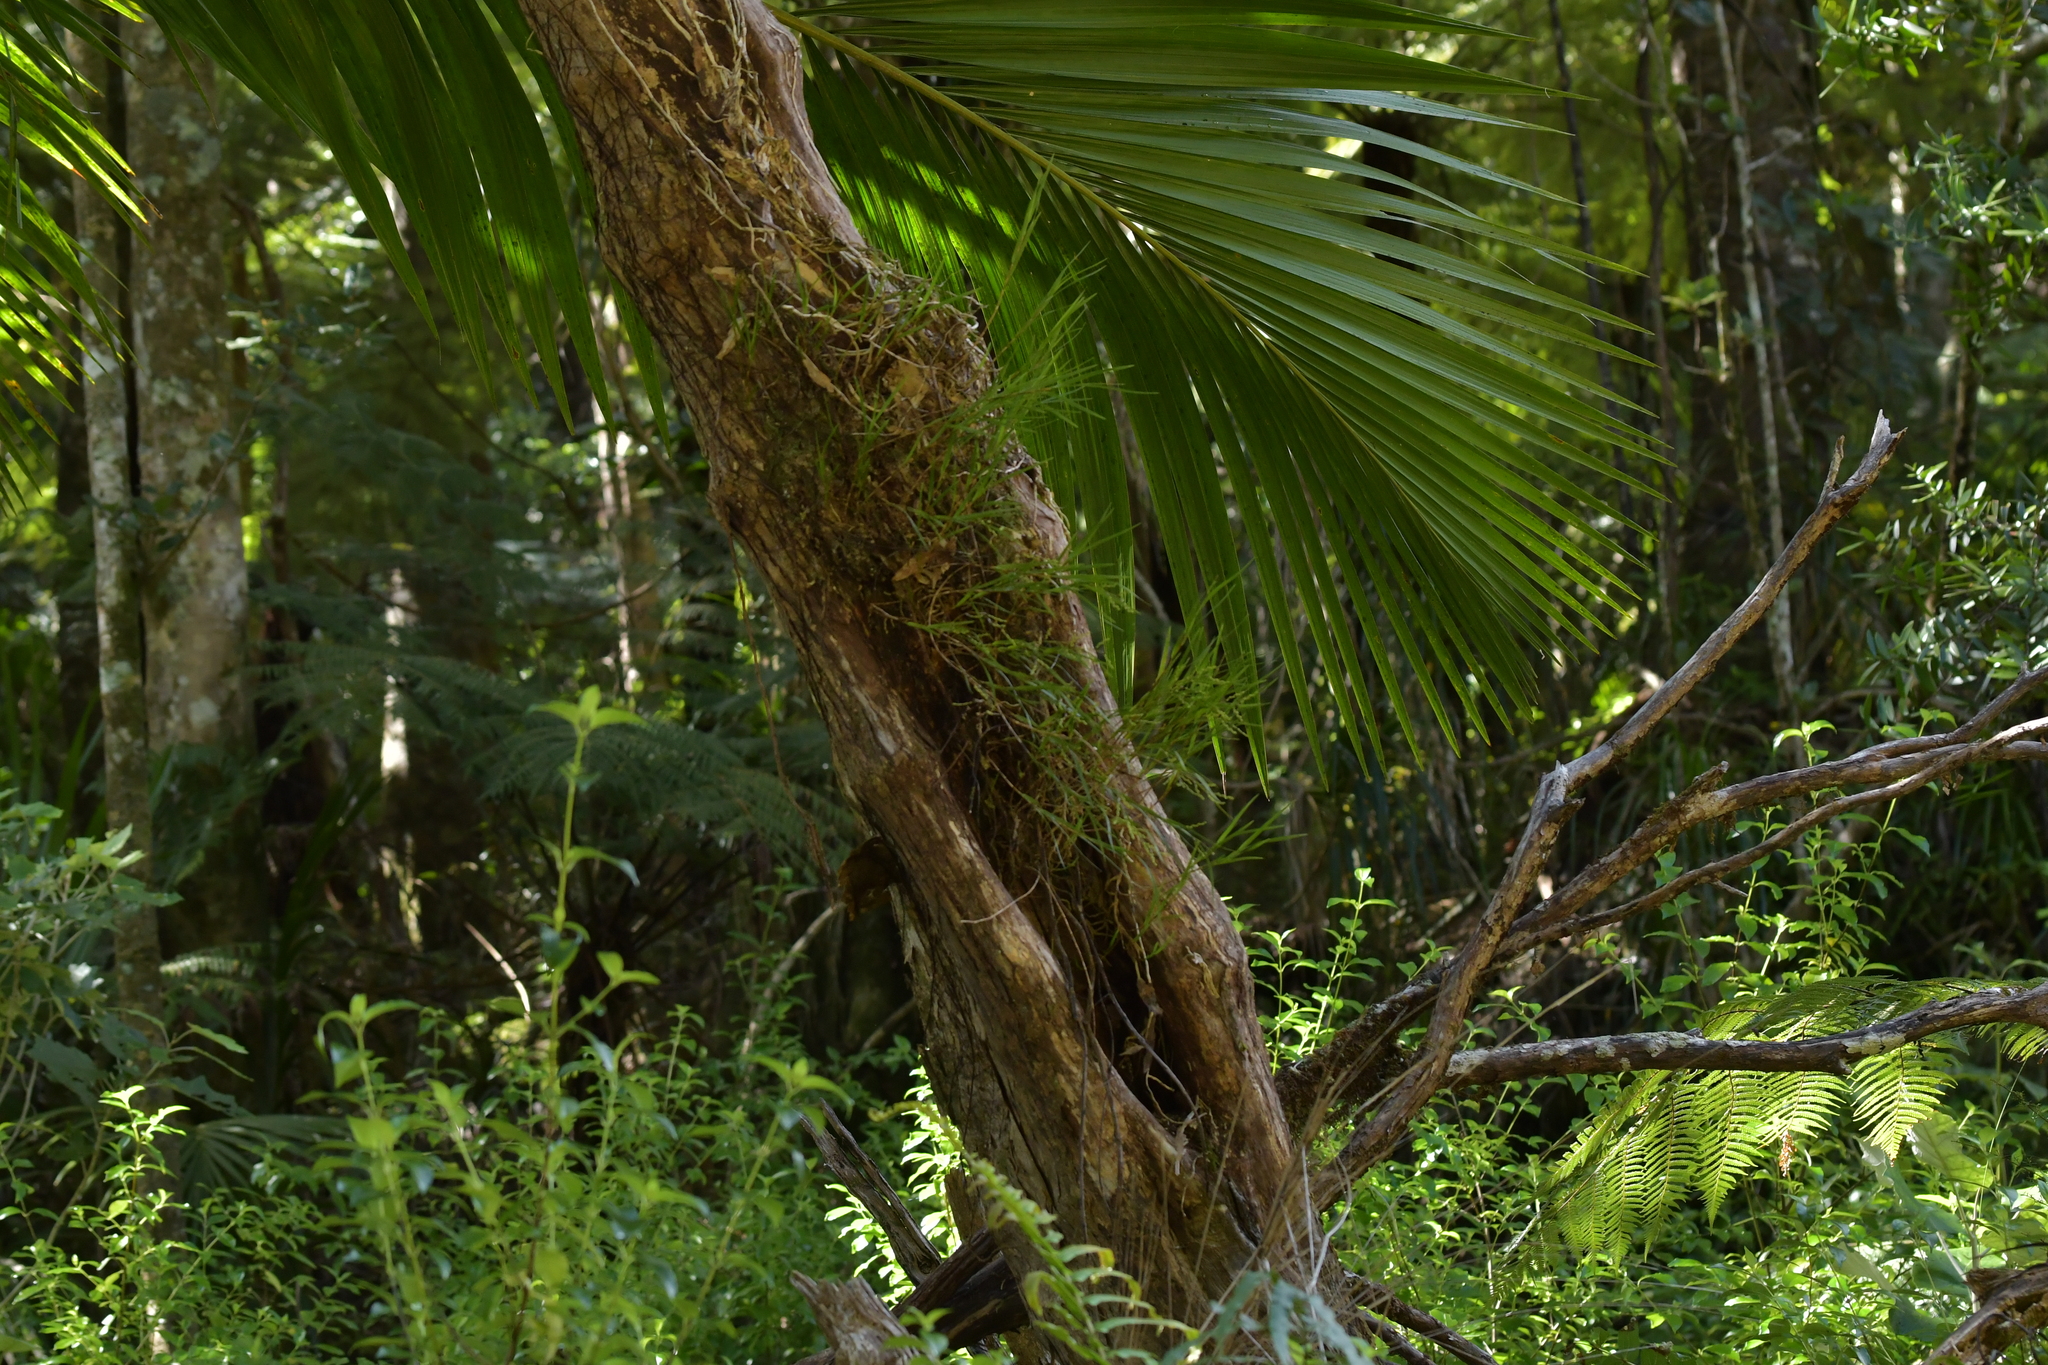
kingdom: Plantae
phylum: Tracheophyta
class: Liliopsida
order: Asparagales
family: Orchidaceae
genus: Earina
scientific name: Earina mucronata
